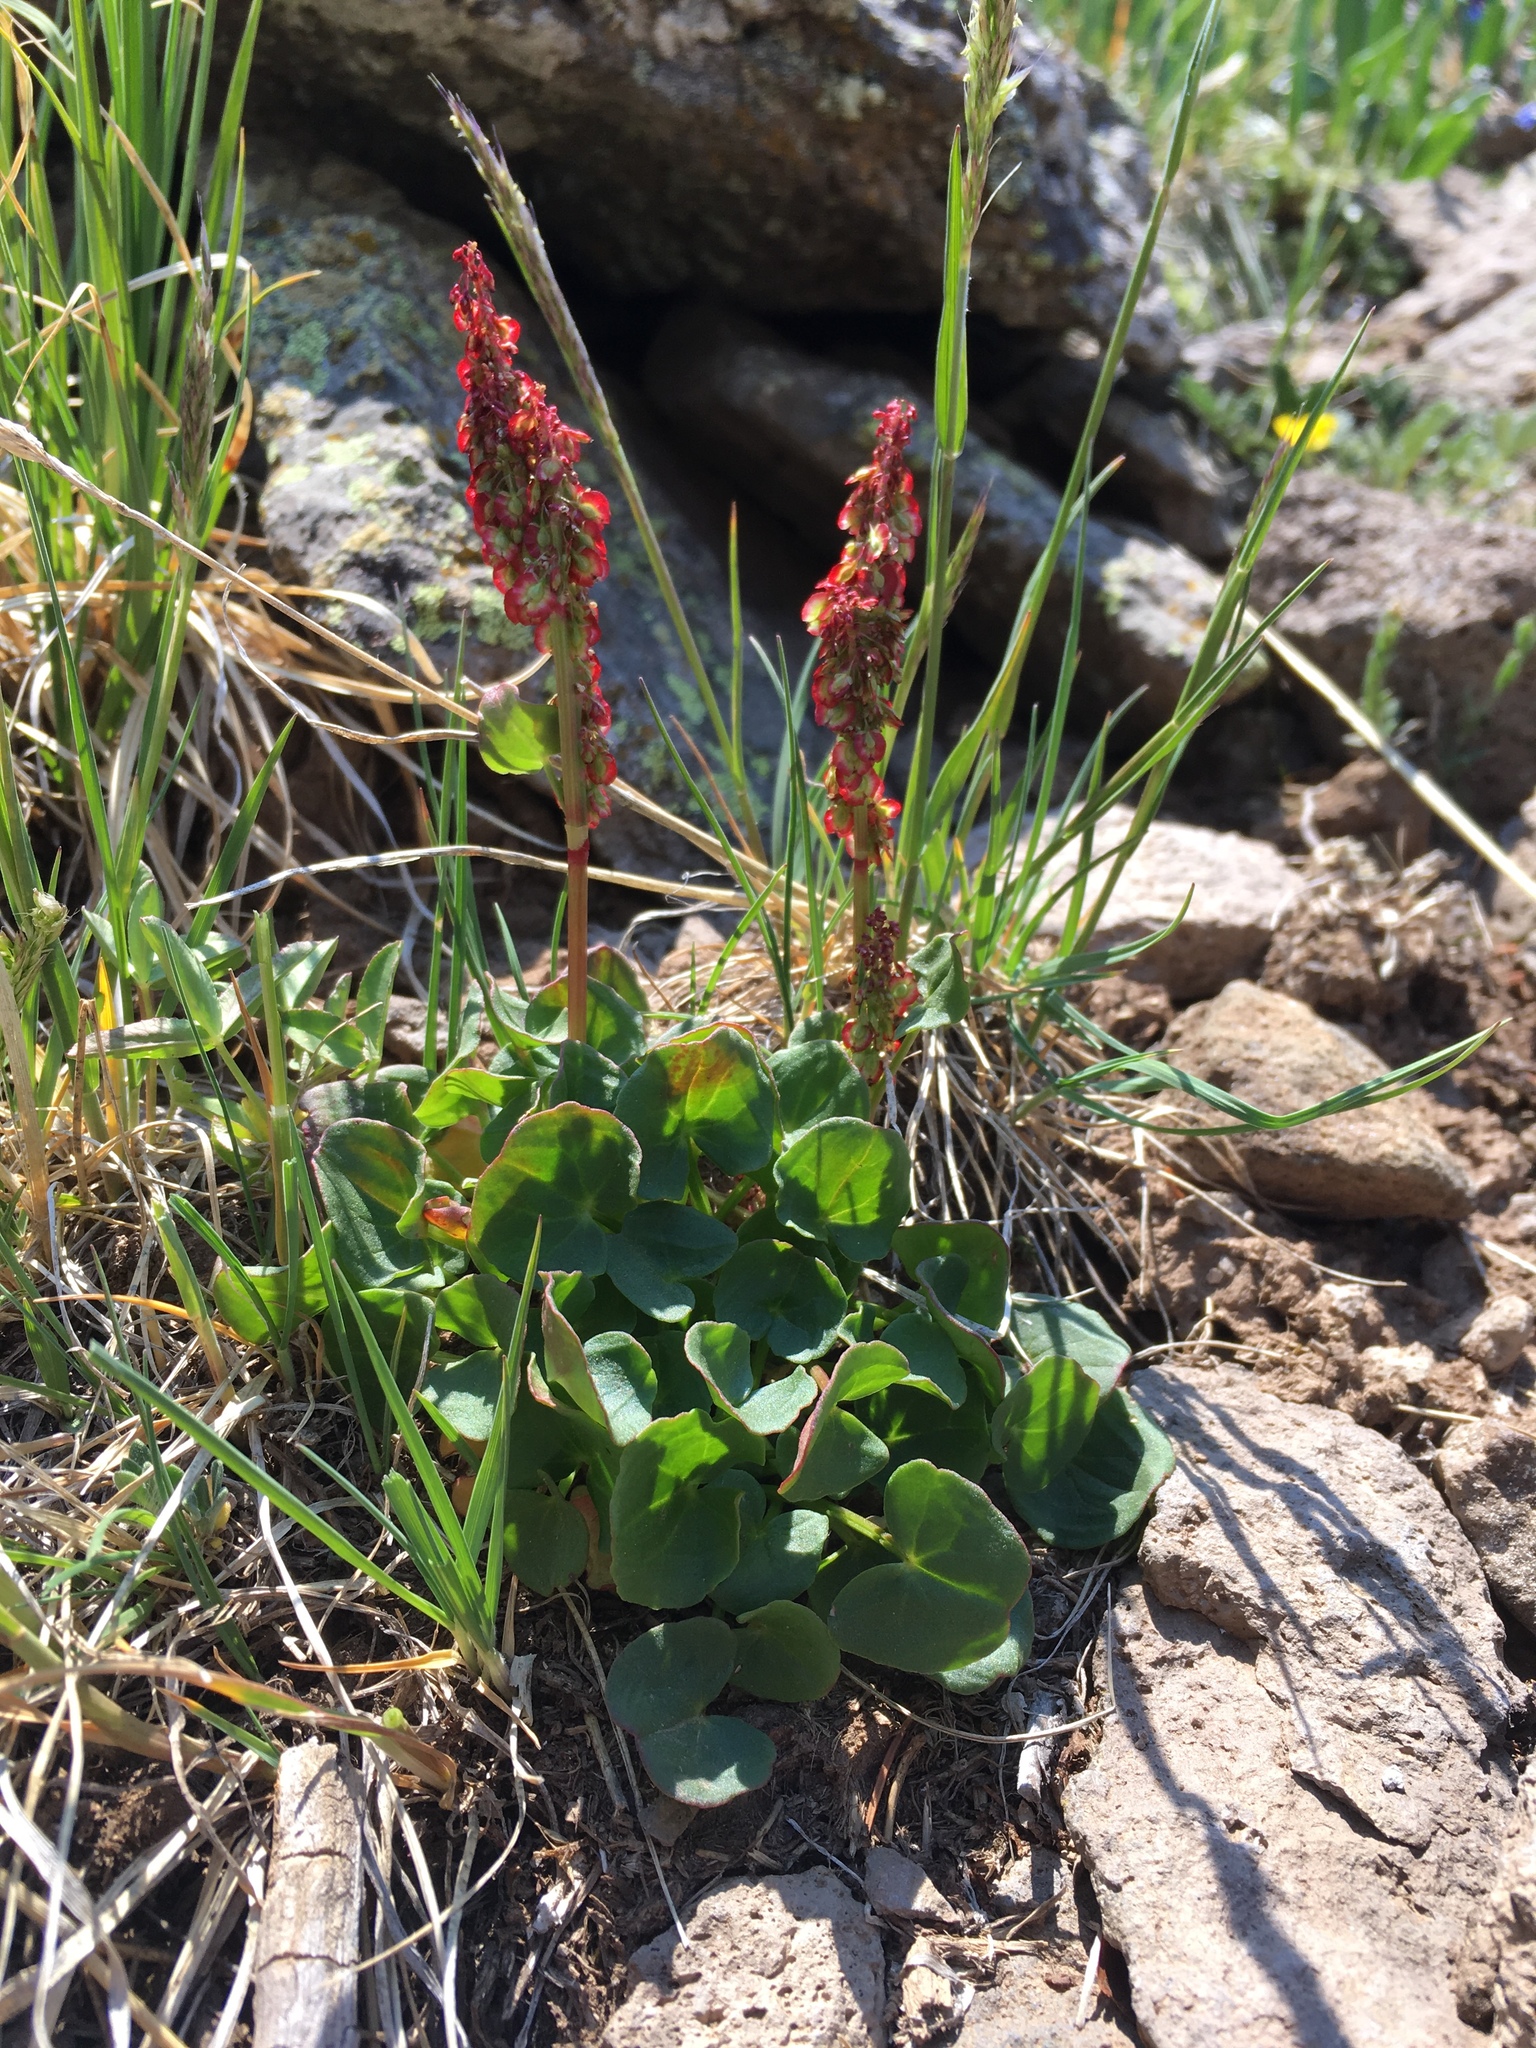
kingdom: Plantae
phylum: Tracheophyta
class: Magnoliopsida
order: Caryophyllales
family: Polygonaceae
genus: Oxyria
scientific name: Oxyria digyna
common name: Alpine mountain-sorrel
